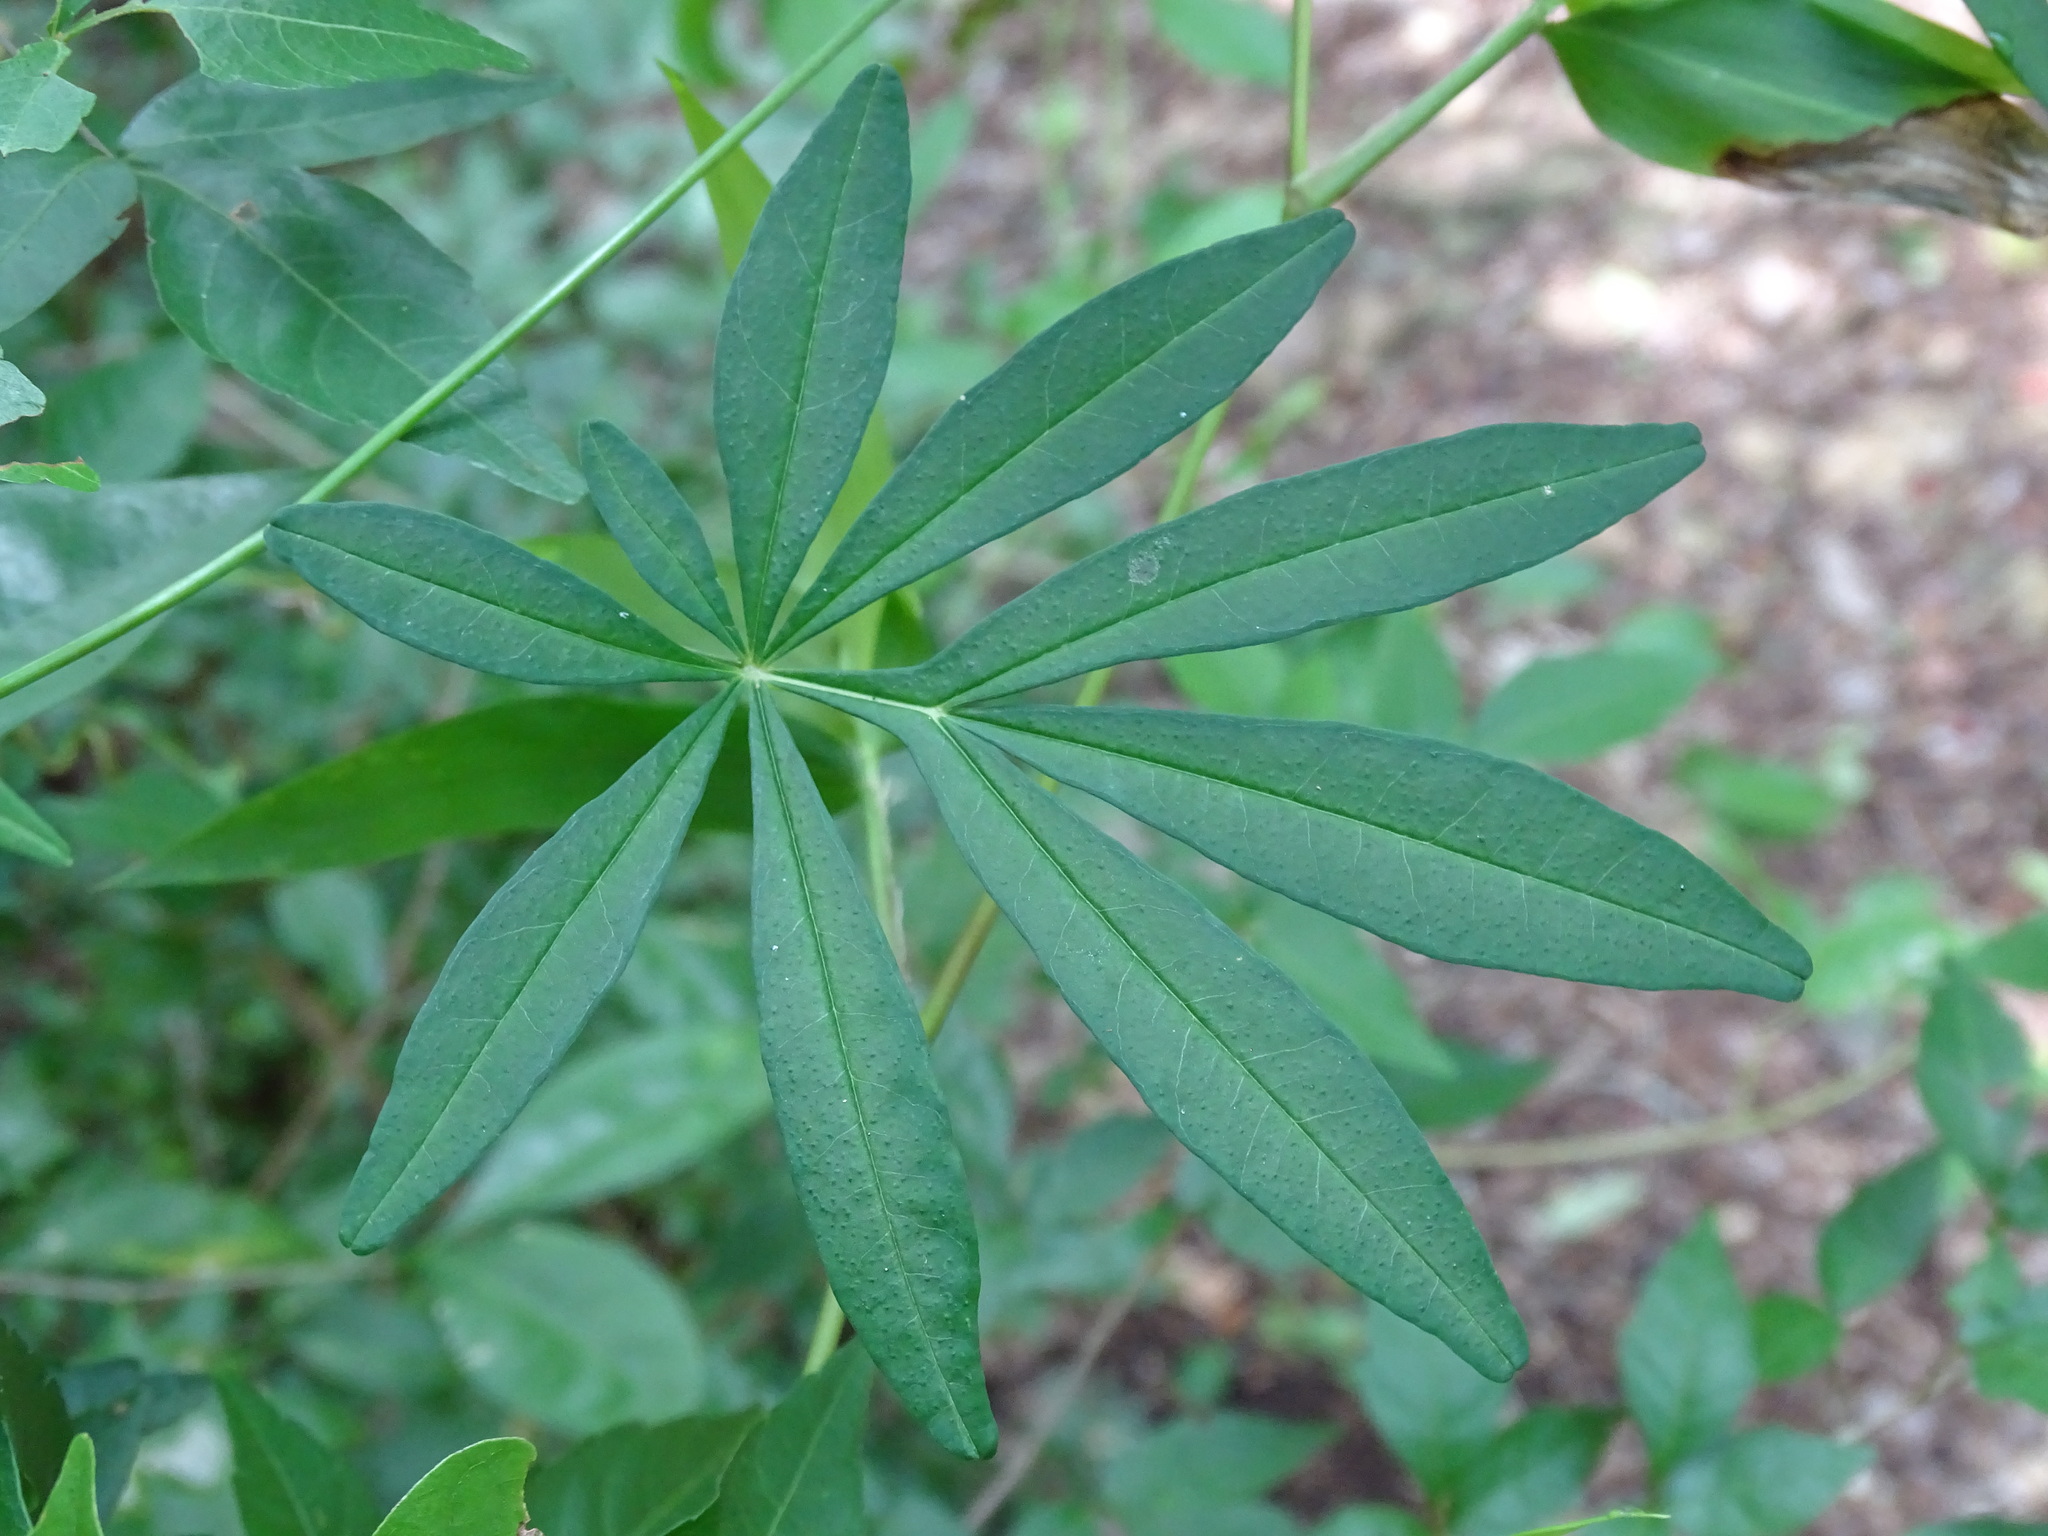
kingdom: Plantae
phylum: Tracheophyta
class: Magnoliopsida
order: Solanales
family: Convolvulaceae
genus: Ipomoea
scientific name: Ipomoea heterodoxa
